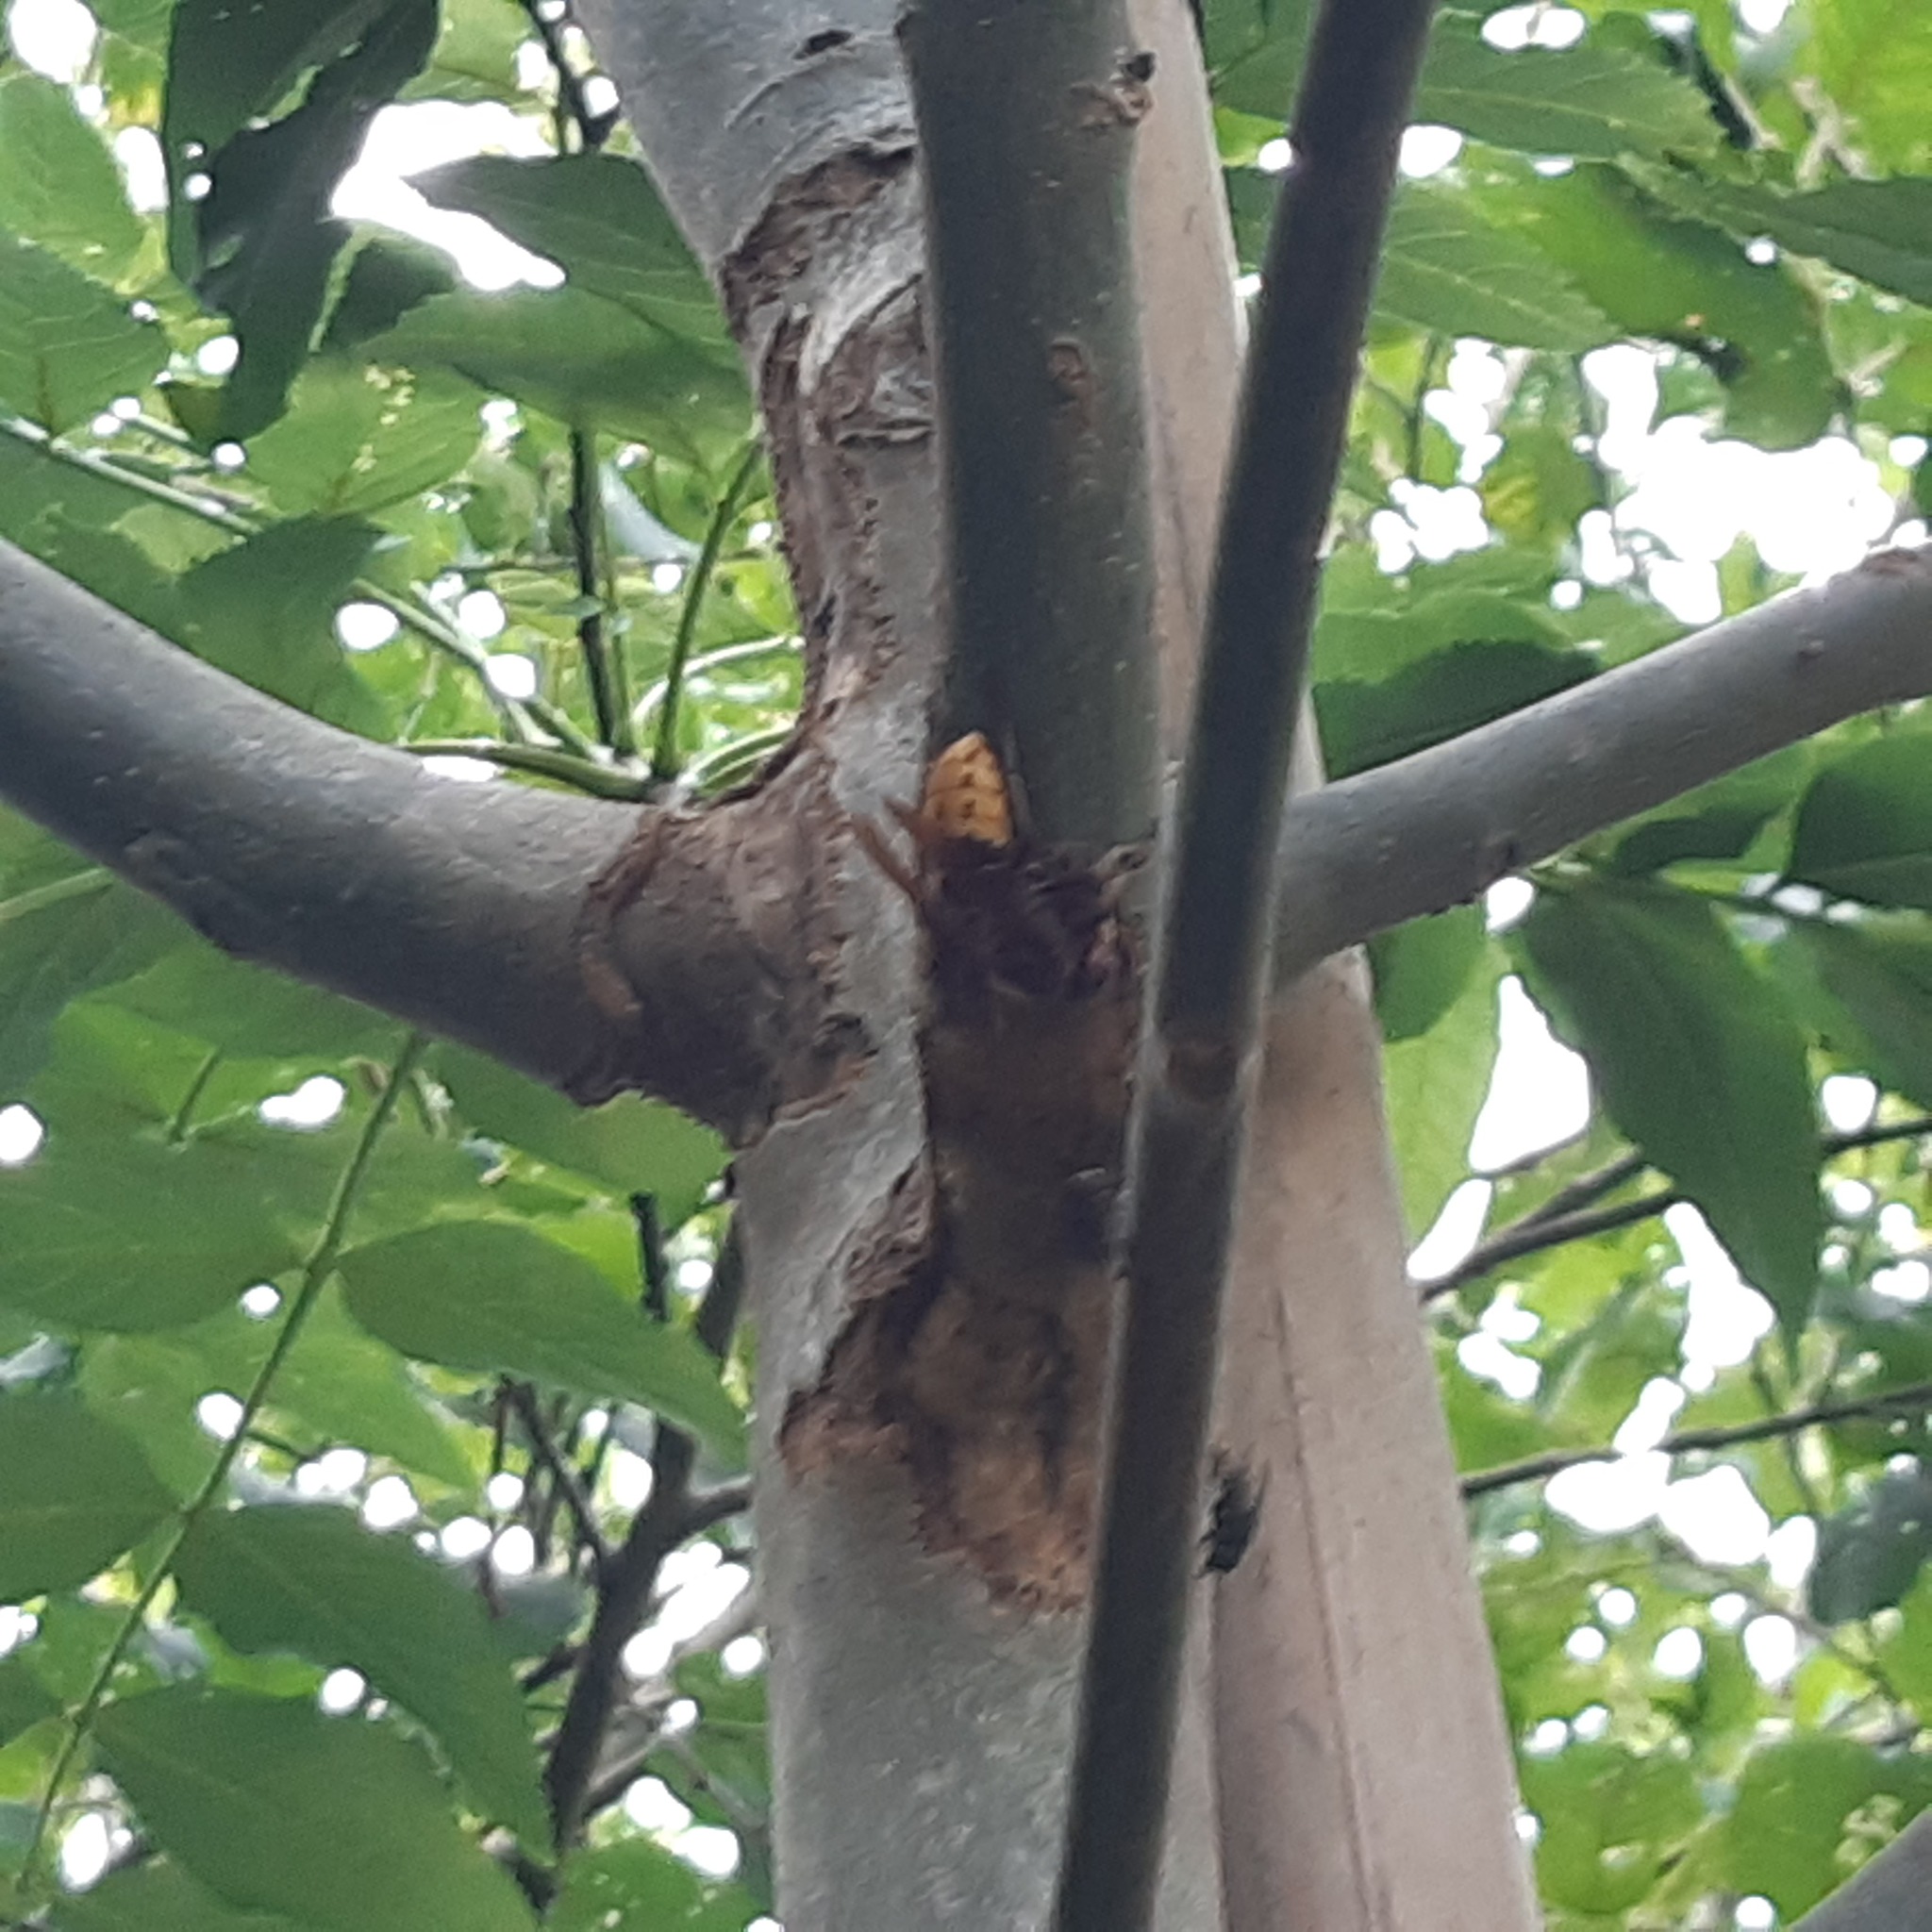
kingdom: Animalia
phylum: Arthropoda
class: Insecta
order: Hymenoptera
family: Vespidae
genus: Vespa
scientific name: Vespa crabro
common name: Hornet
